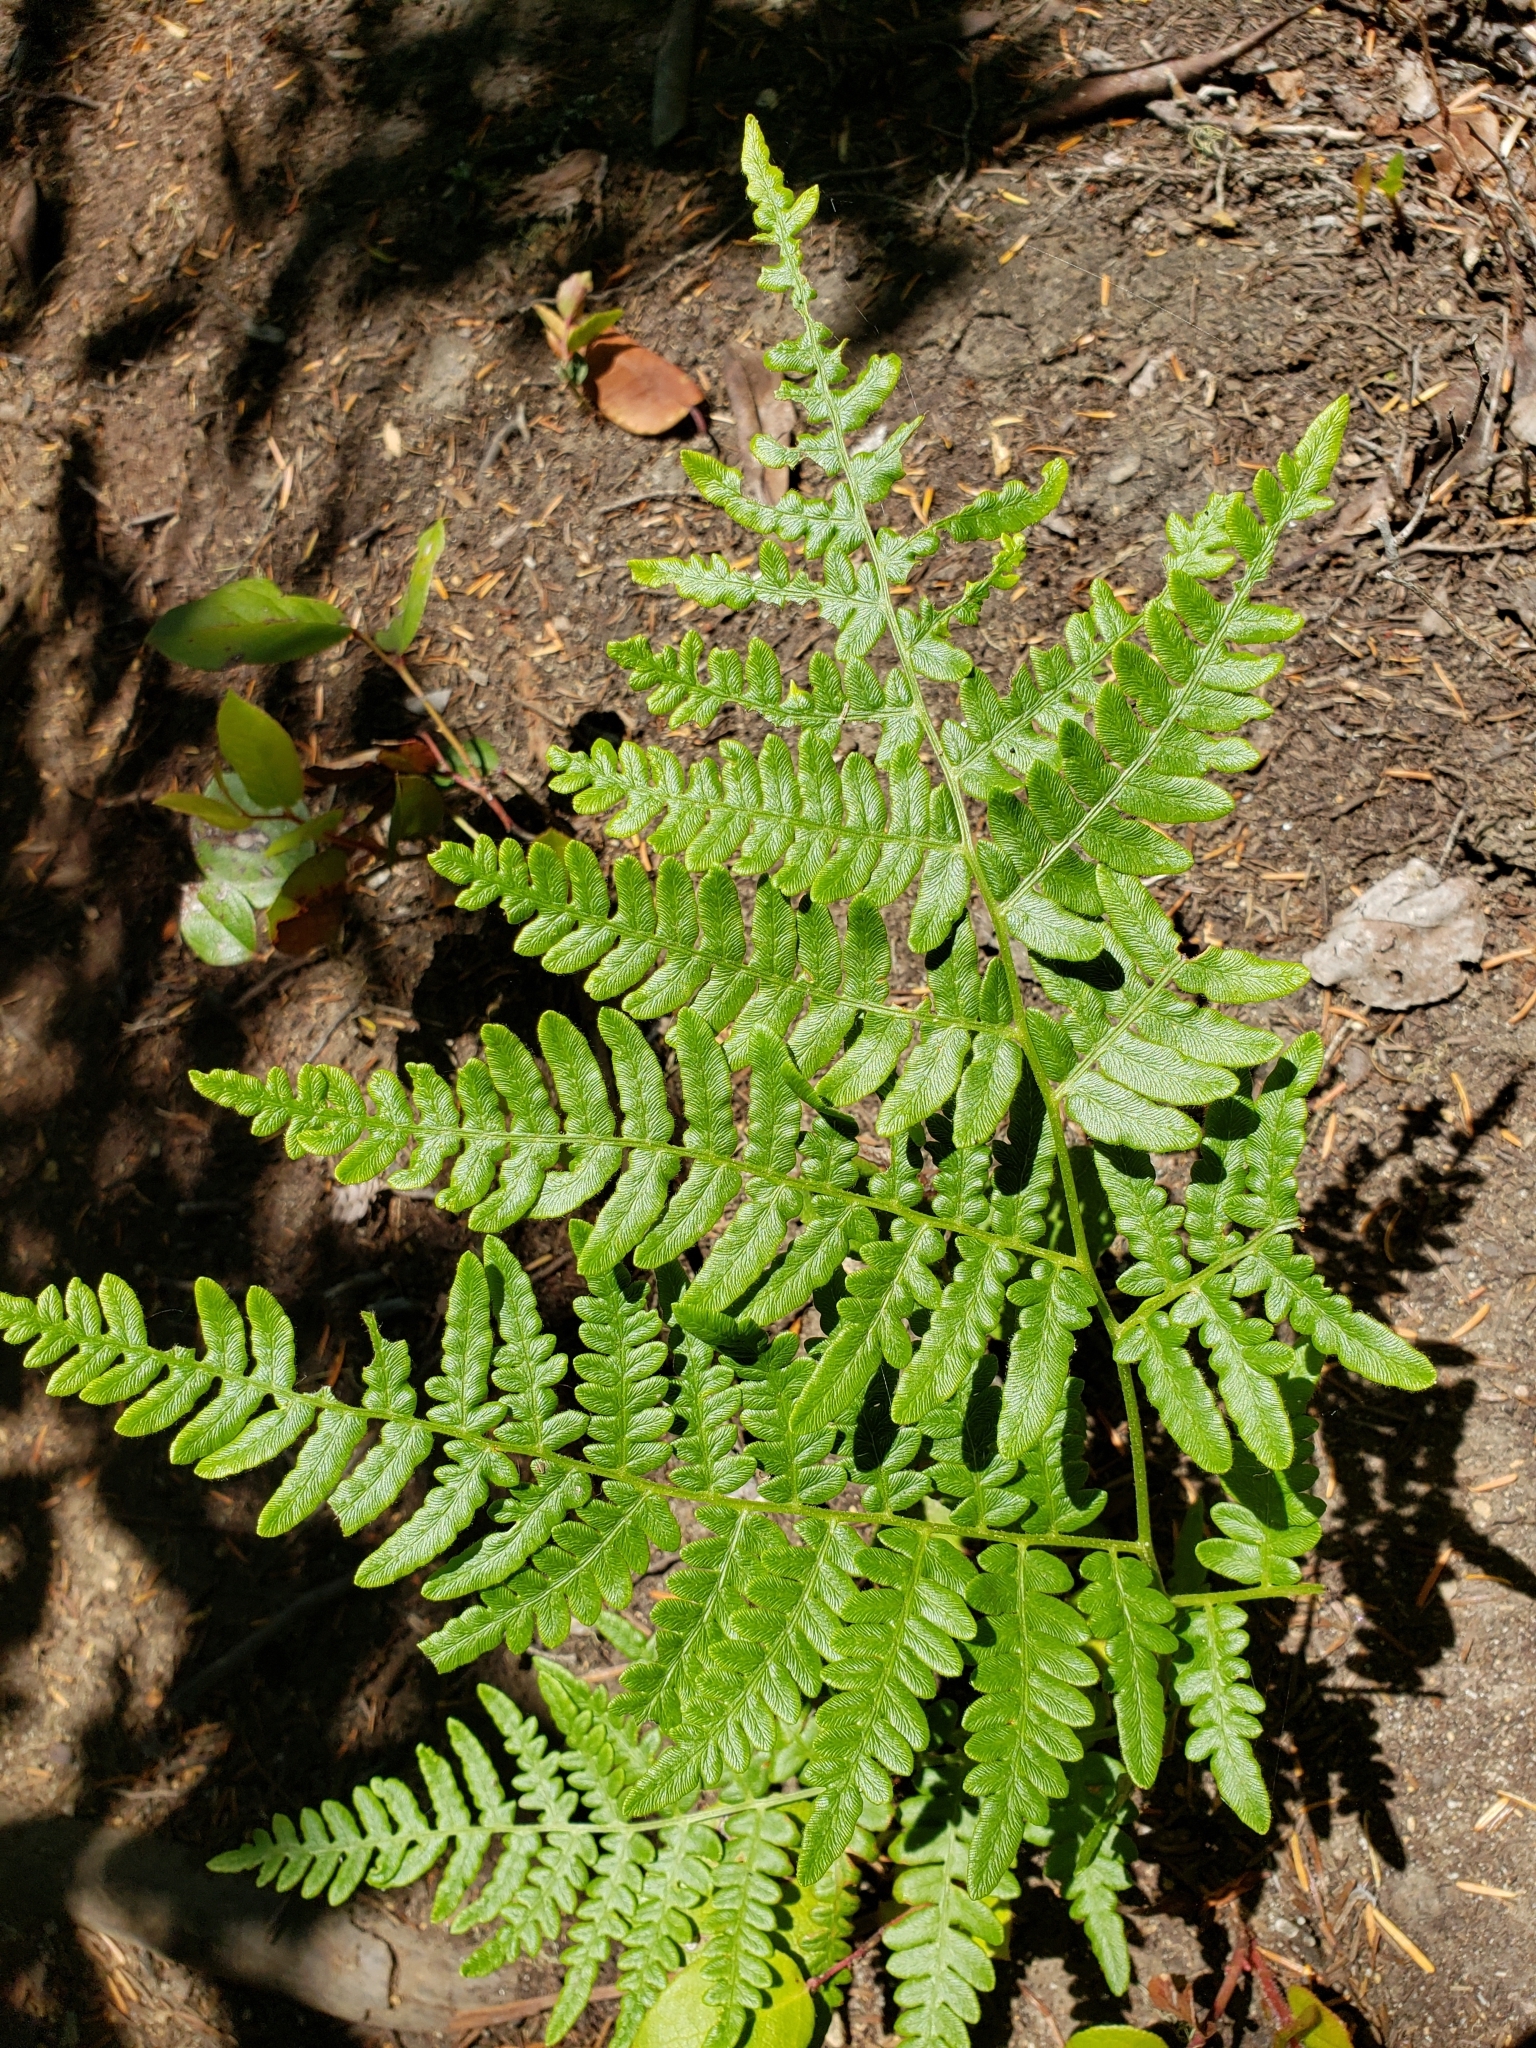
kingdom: Plantae
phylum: Tracheophyta
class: Polypodiopsida
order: Polypodiales
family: Dennstaedtiaceae
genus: Pteridium
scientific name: Pteridium aquilinum
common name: Bracken
